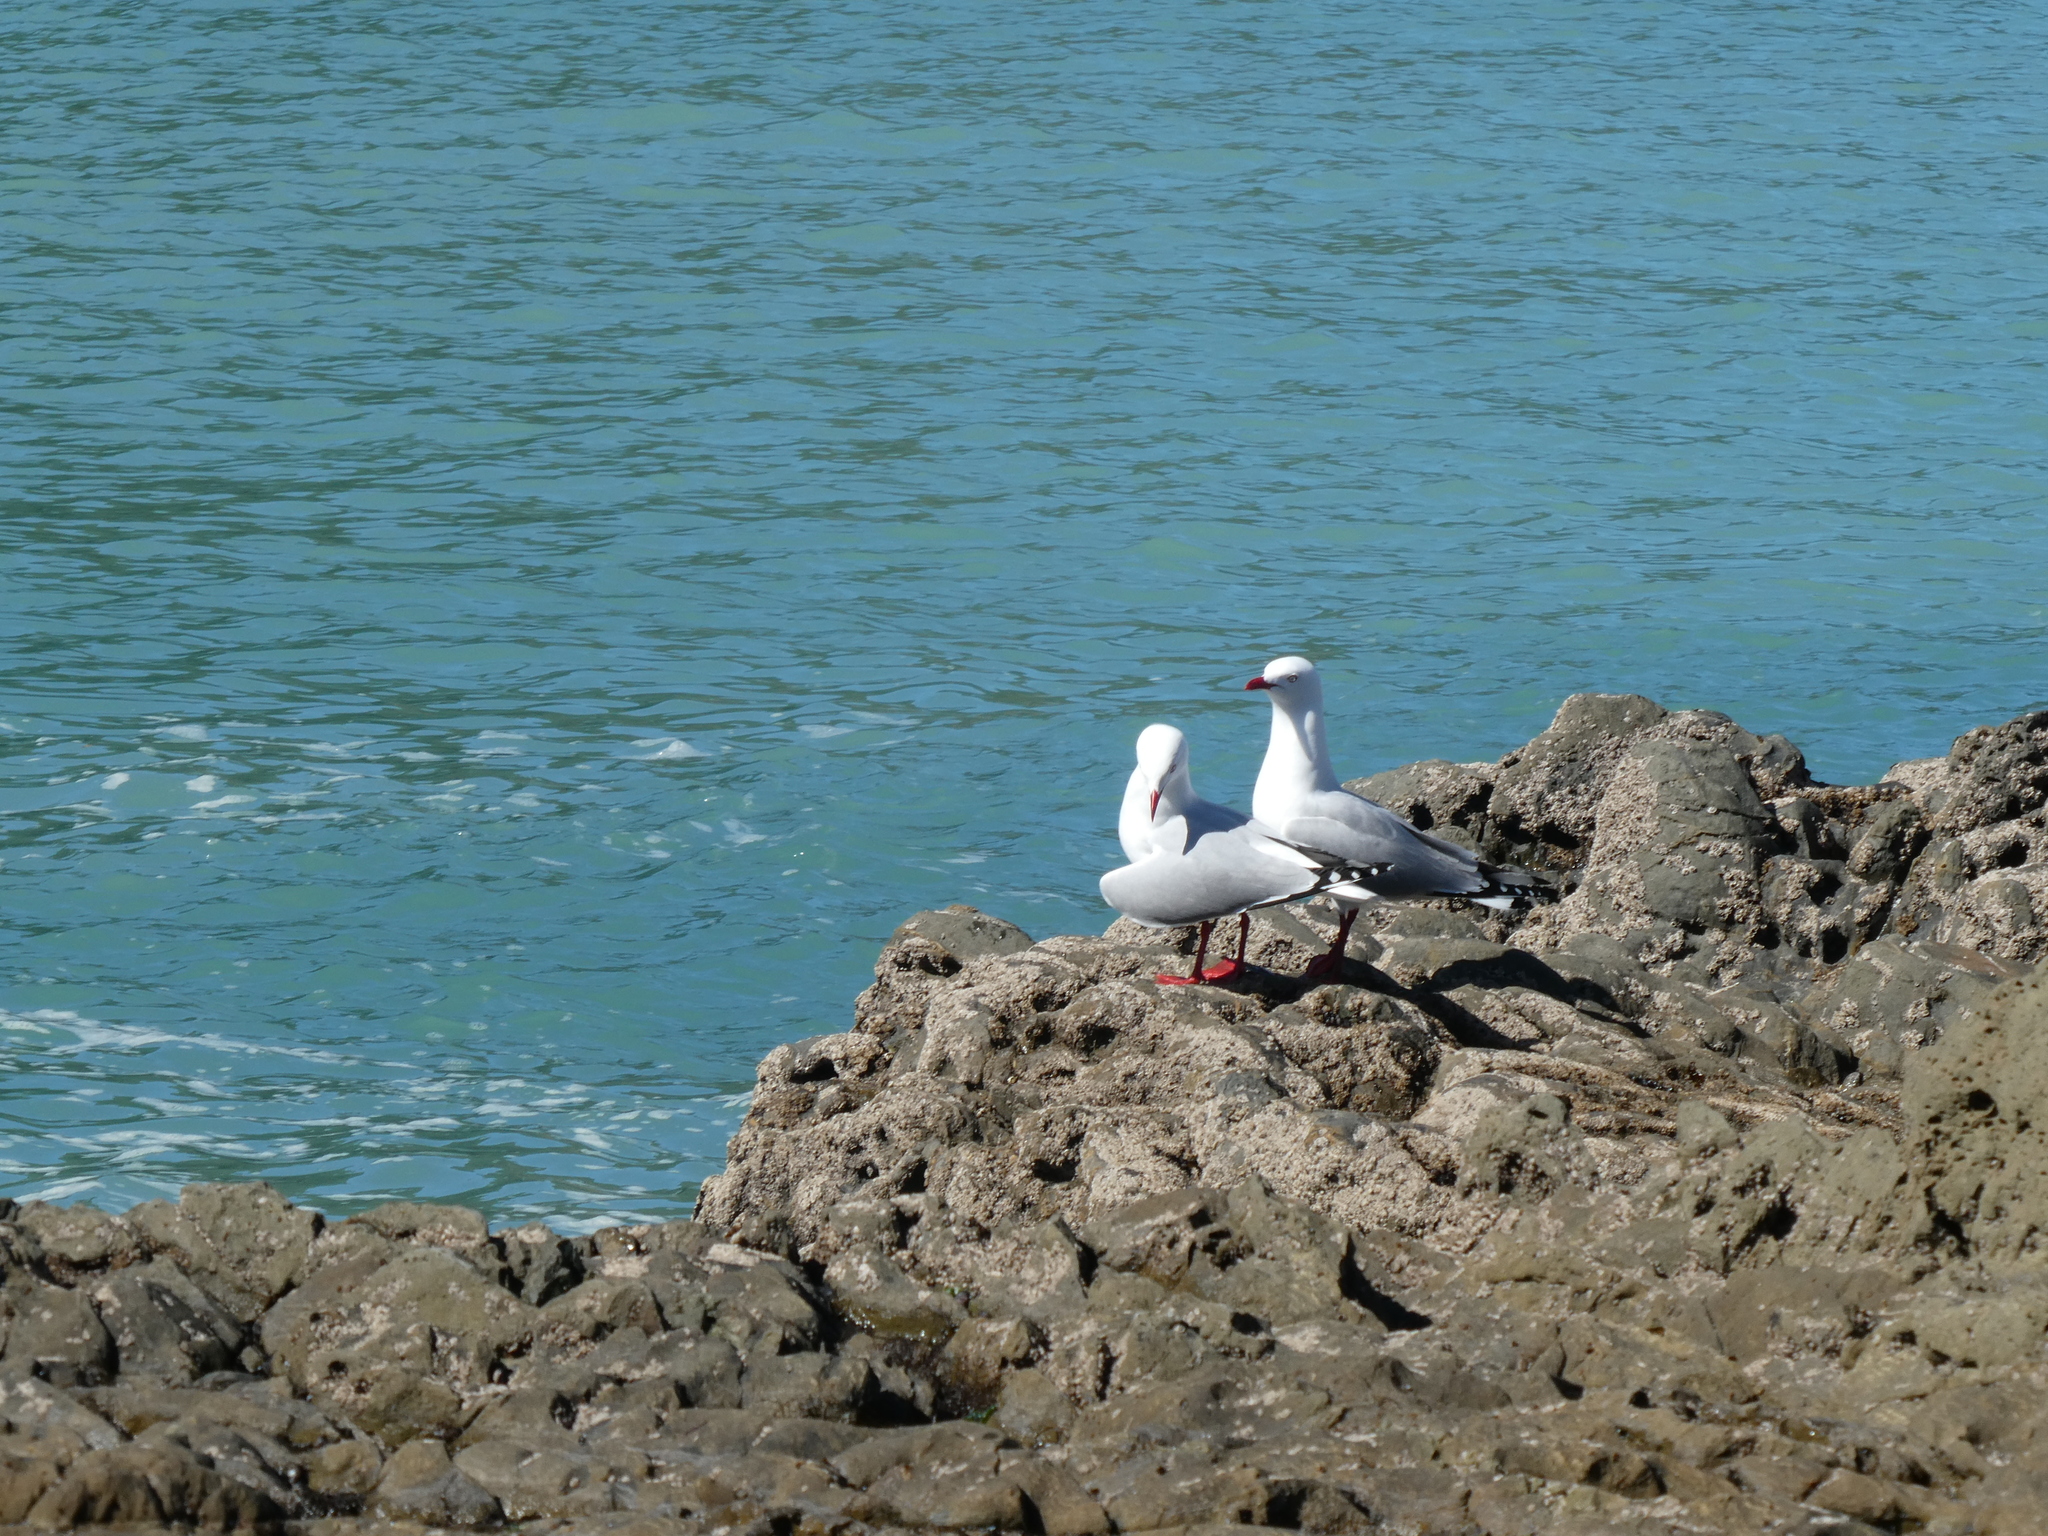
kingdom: Animalia
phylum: Chordata
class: Aves
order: Charadriiformes
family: Laridae
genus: Chroicocephalus
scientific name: Chroicocephalus novaehollandiae
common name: Silver gull
